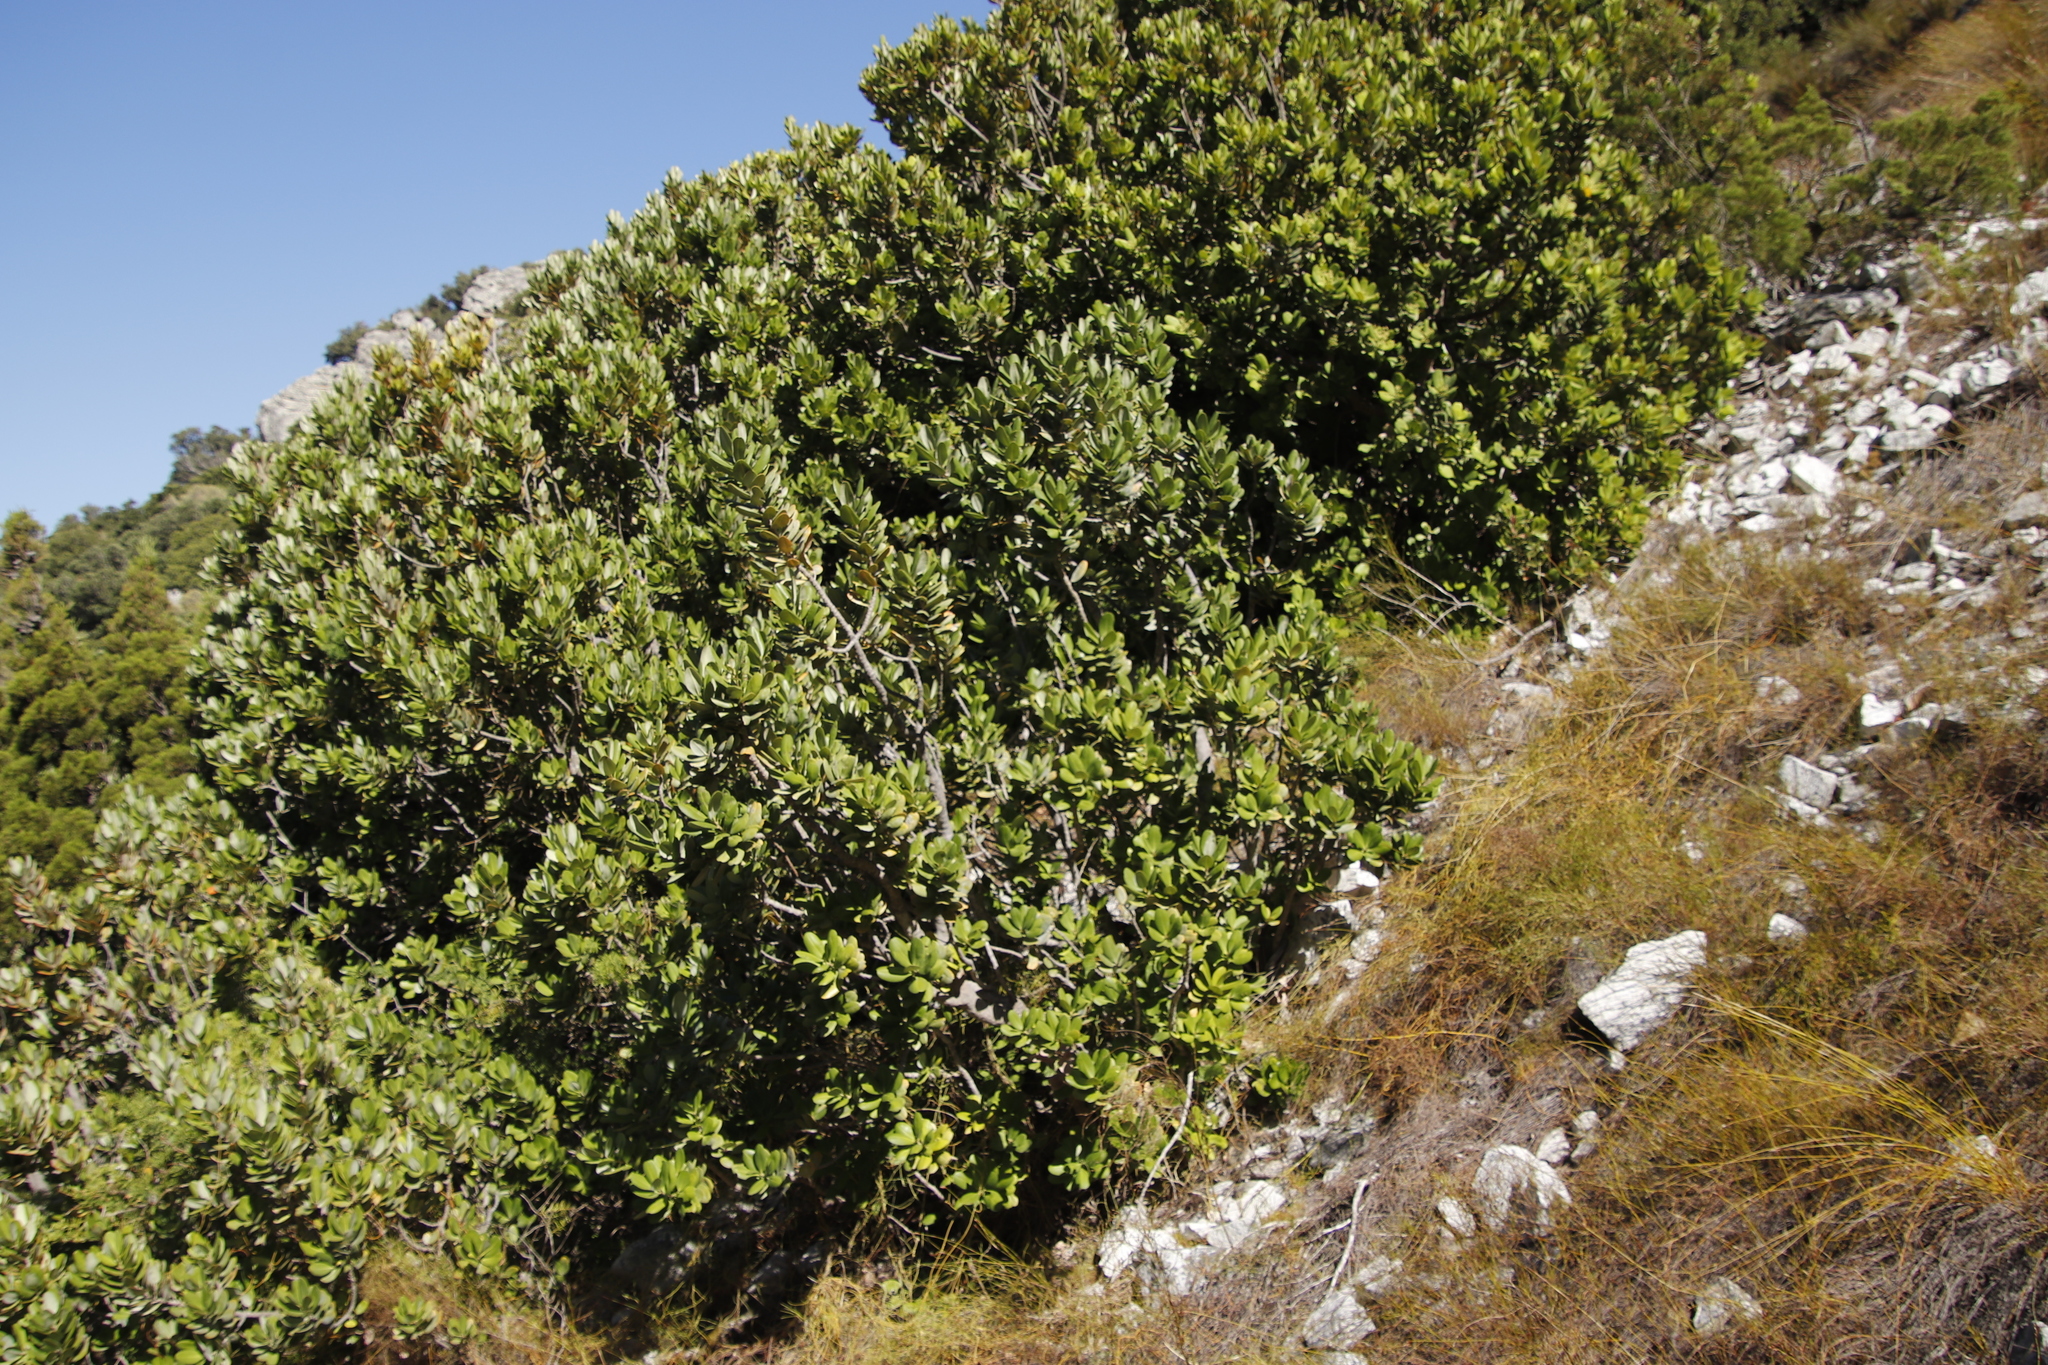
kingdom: Plantae
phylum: Tracheophyta
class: Magnoliopsida
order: Sapindales
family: Anacardiaceae
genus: Heeria
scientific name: Heeria argentea
